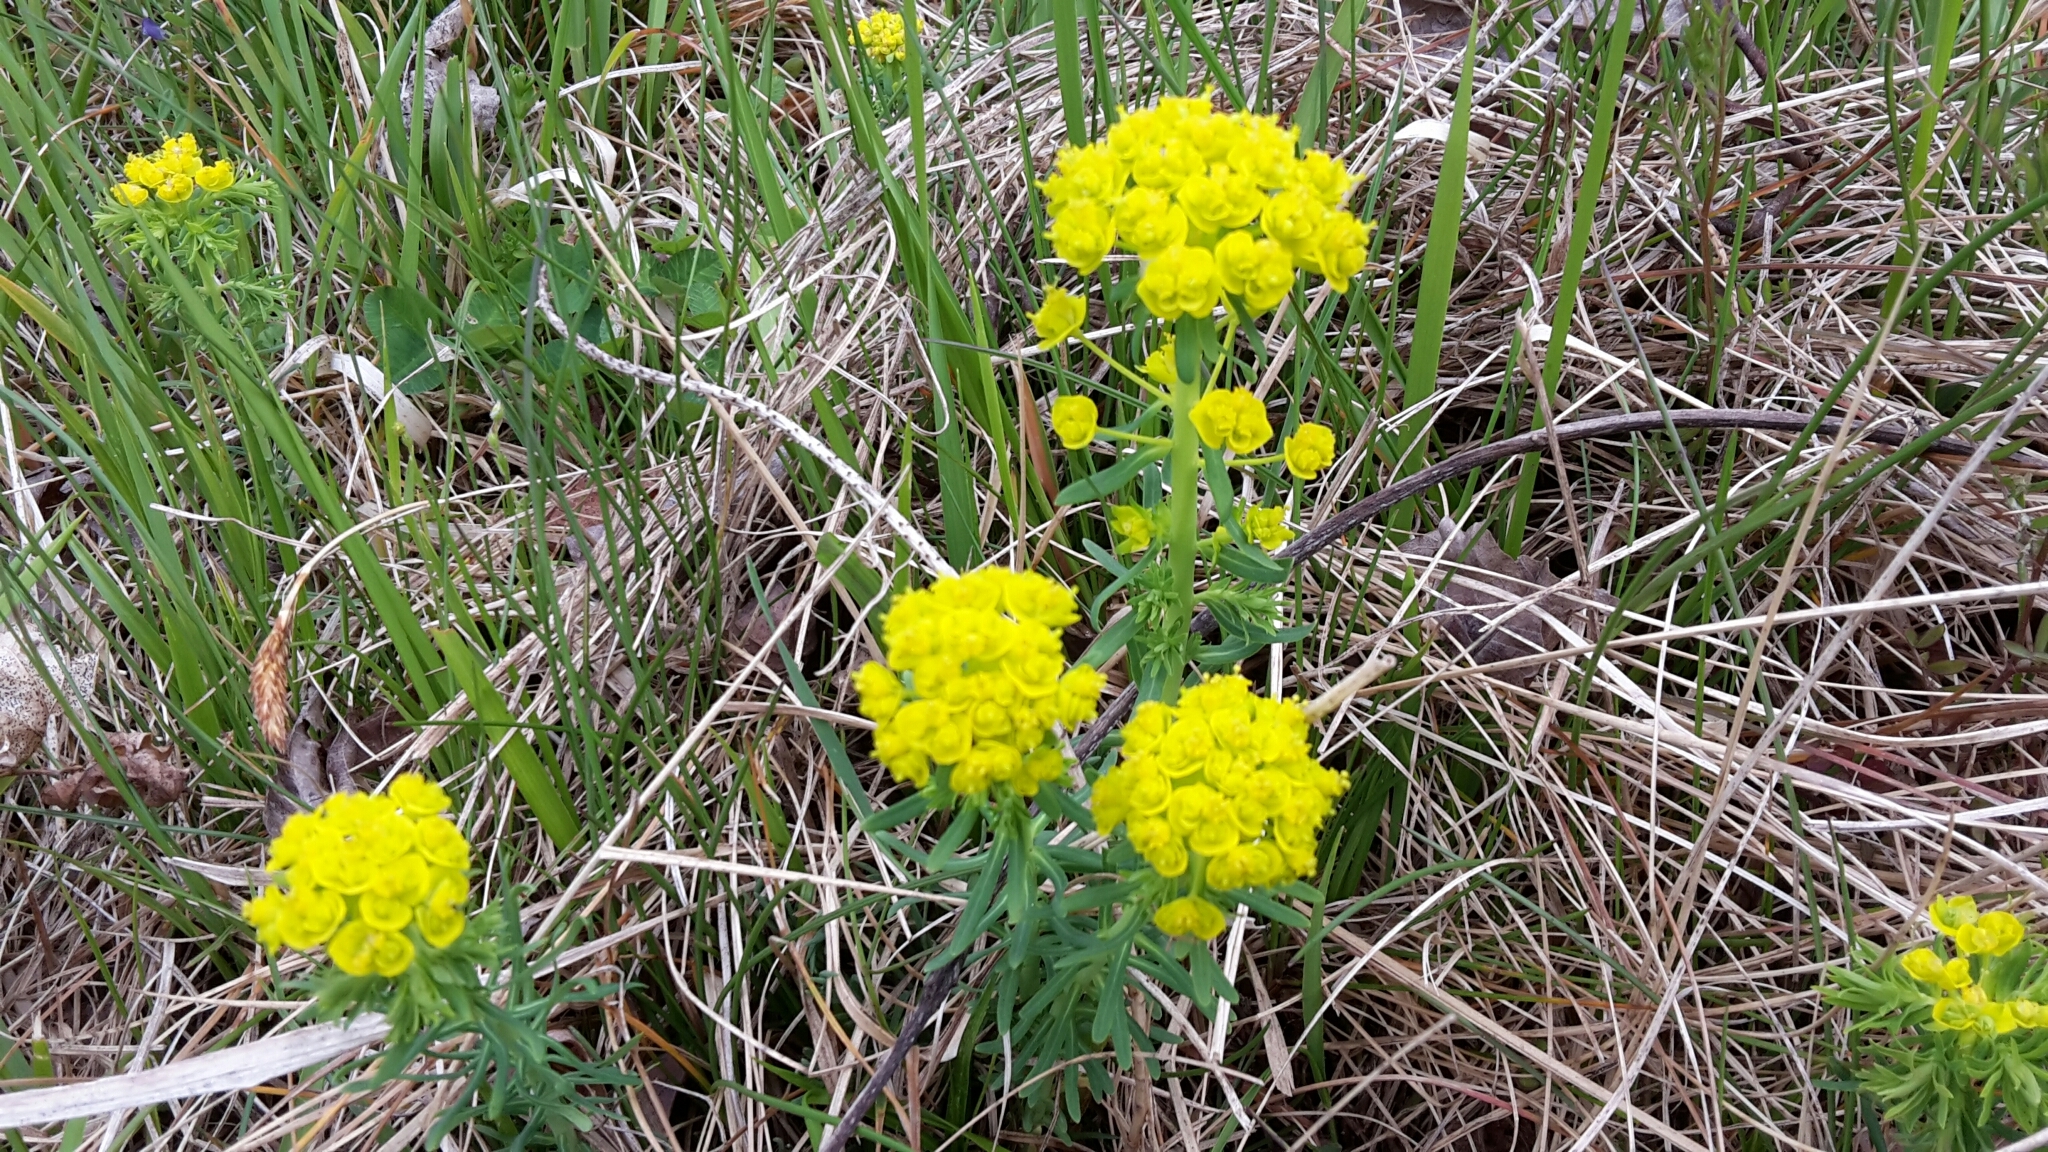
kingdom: Plantae
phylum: Tracheophyta
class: Magnoliopsida
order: Malpighiales
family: Euphorbiaceae
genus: Euphorbia
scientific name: Euphorbia cyparissias
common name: Cypress spurge
